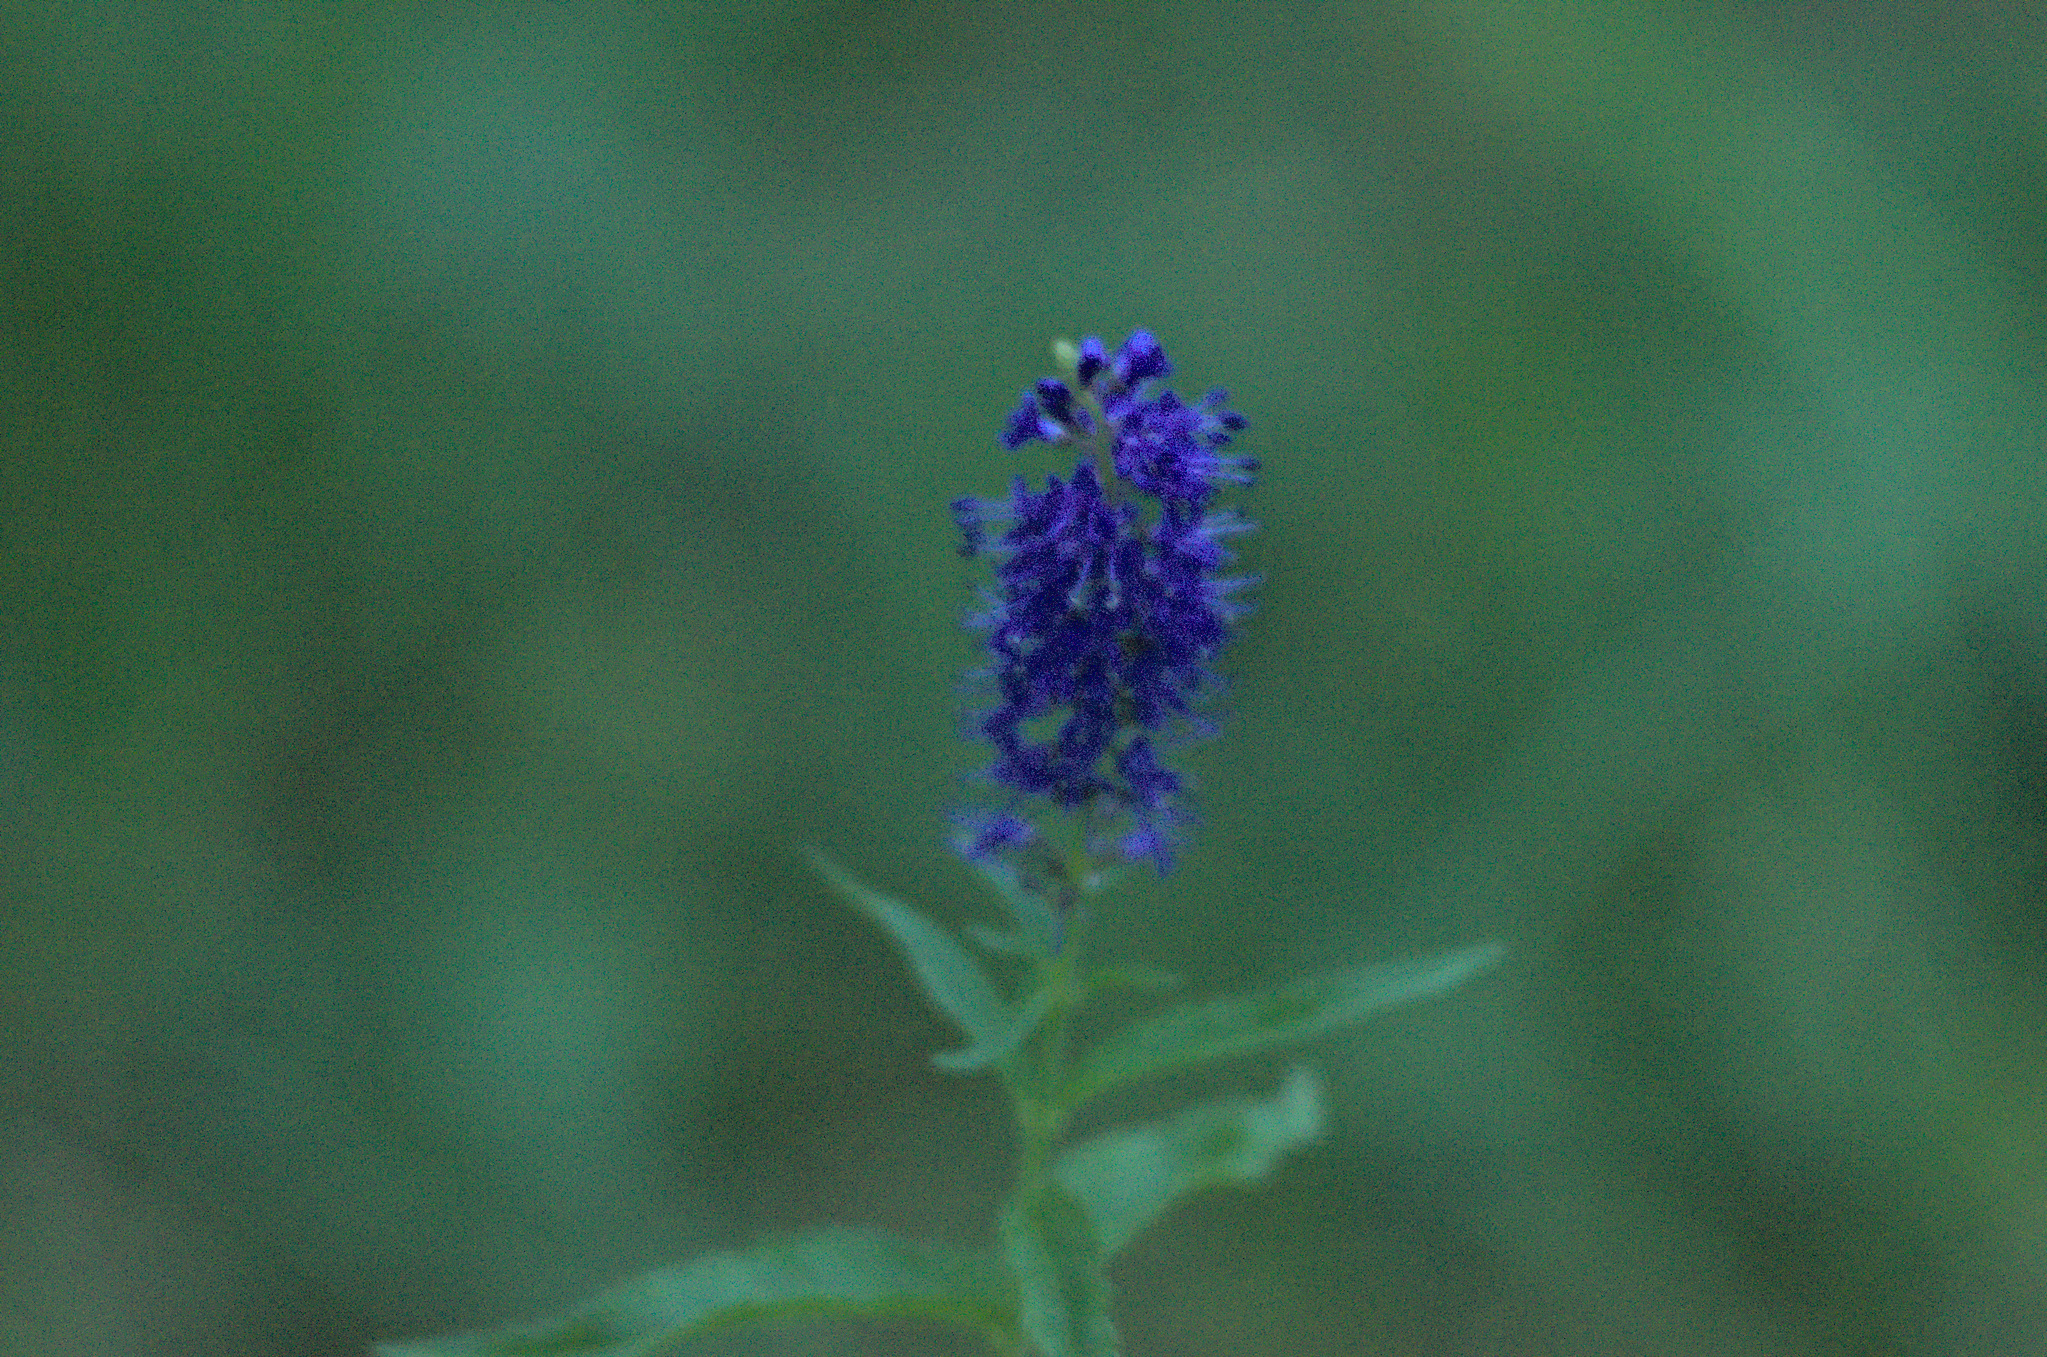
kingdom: Plantae
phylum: Tracheophyta
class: Magnoliopsida
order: Lamiales
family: Plantaginaceae
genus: Veronica
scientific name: Veronica schmakovii
